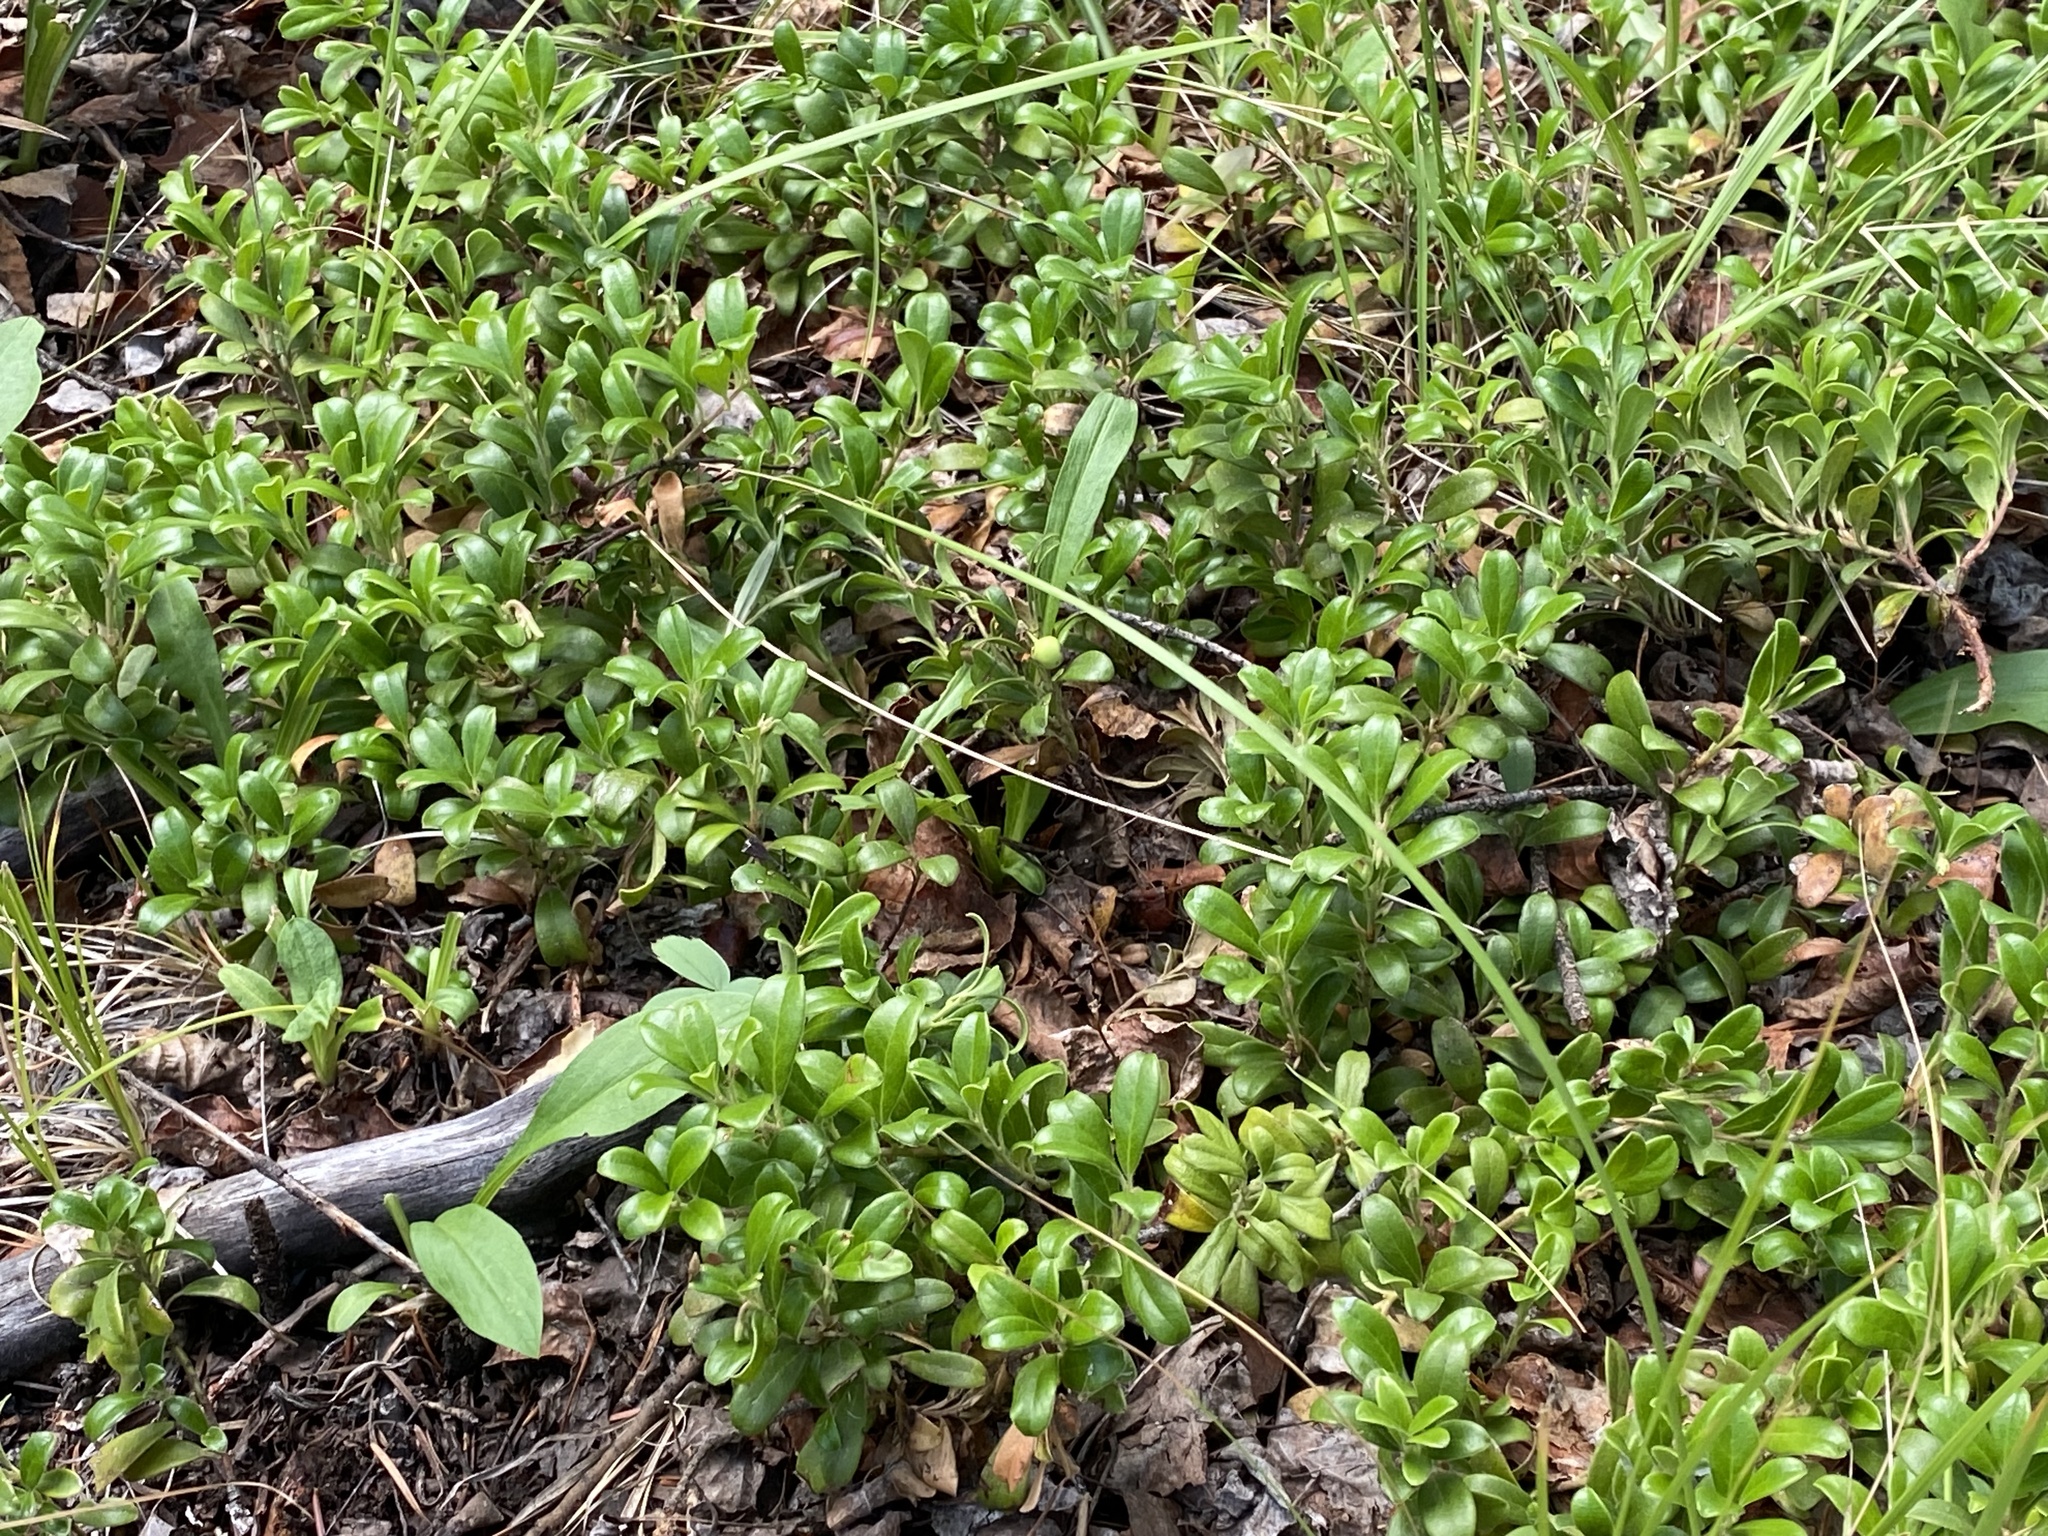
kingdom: Plantae
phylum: Tracheophyta
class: Magnoliopsida
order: Ericales
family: Ericaceae
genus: Arctostaphylos
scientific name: Arctostaphylos uva-ursi
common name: Bearberry
